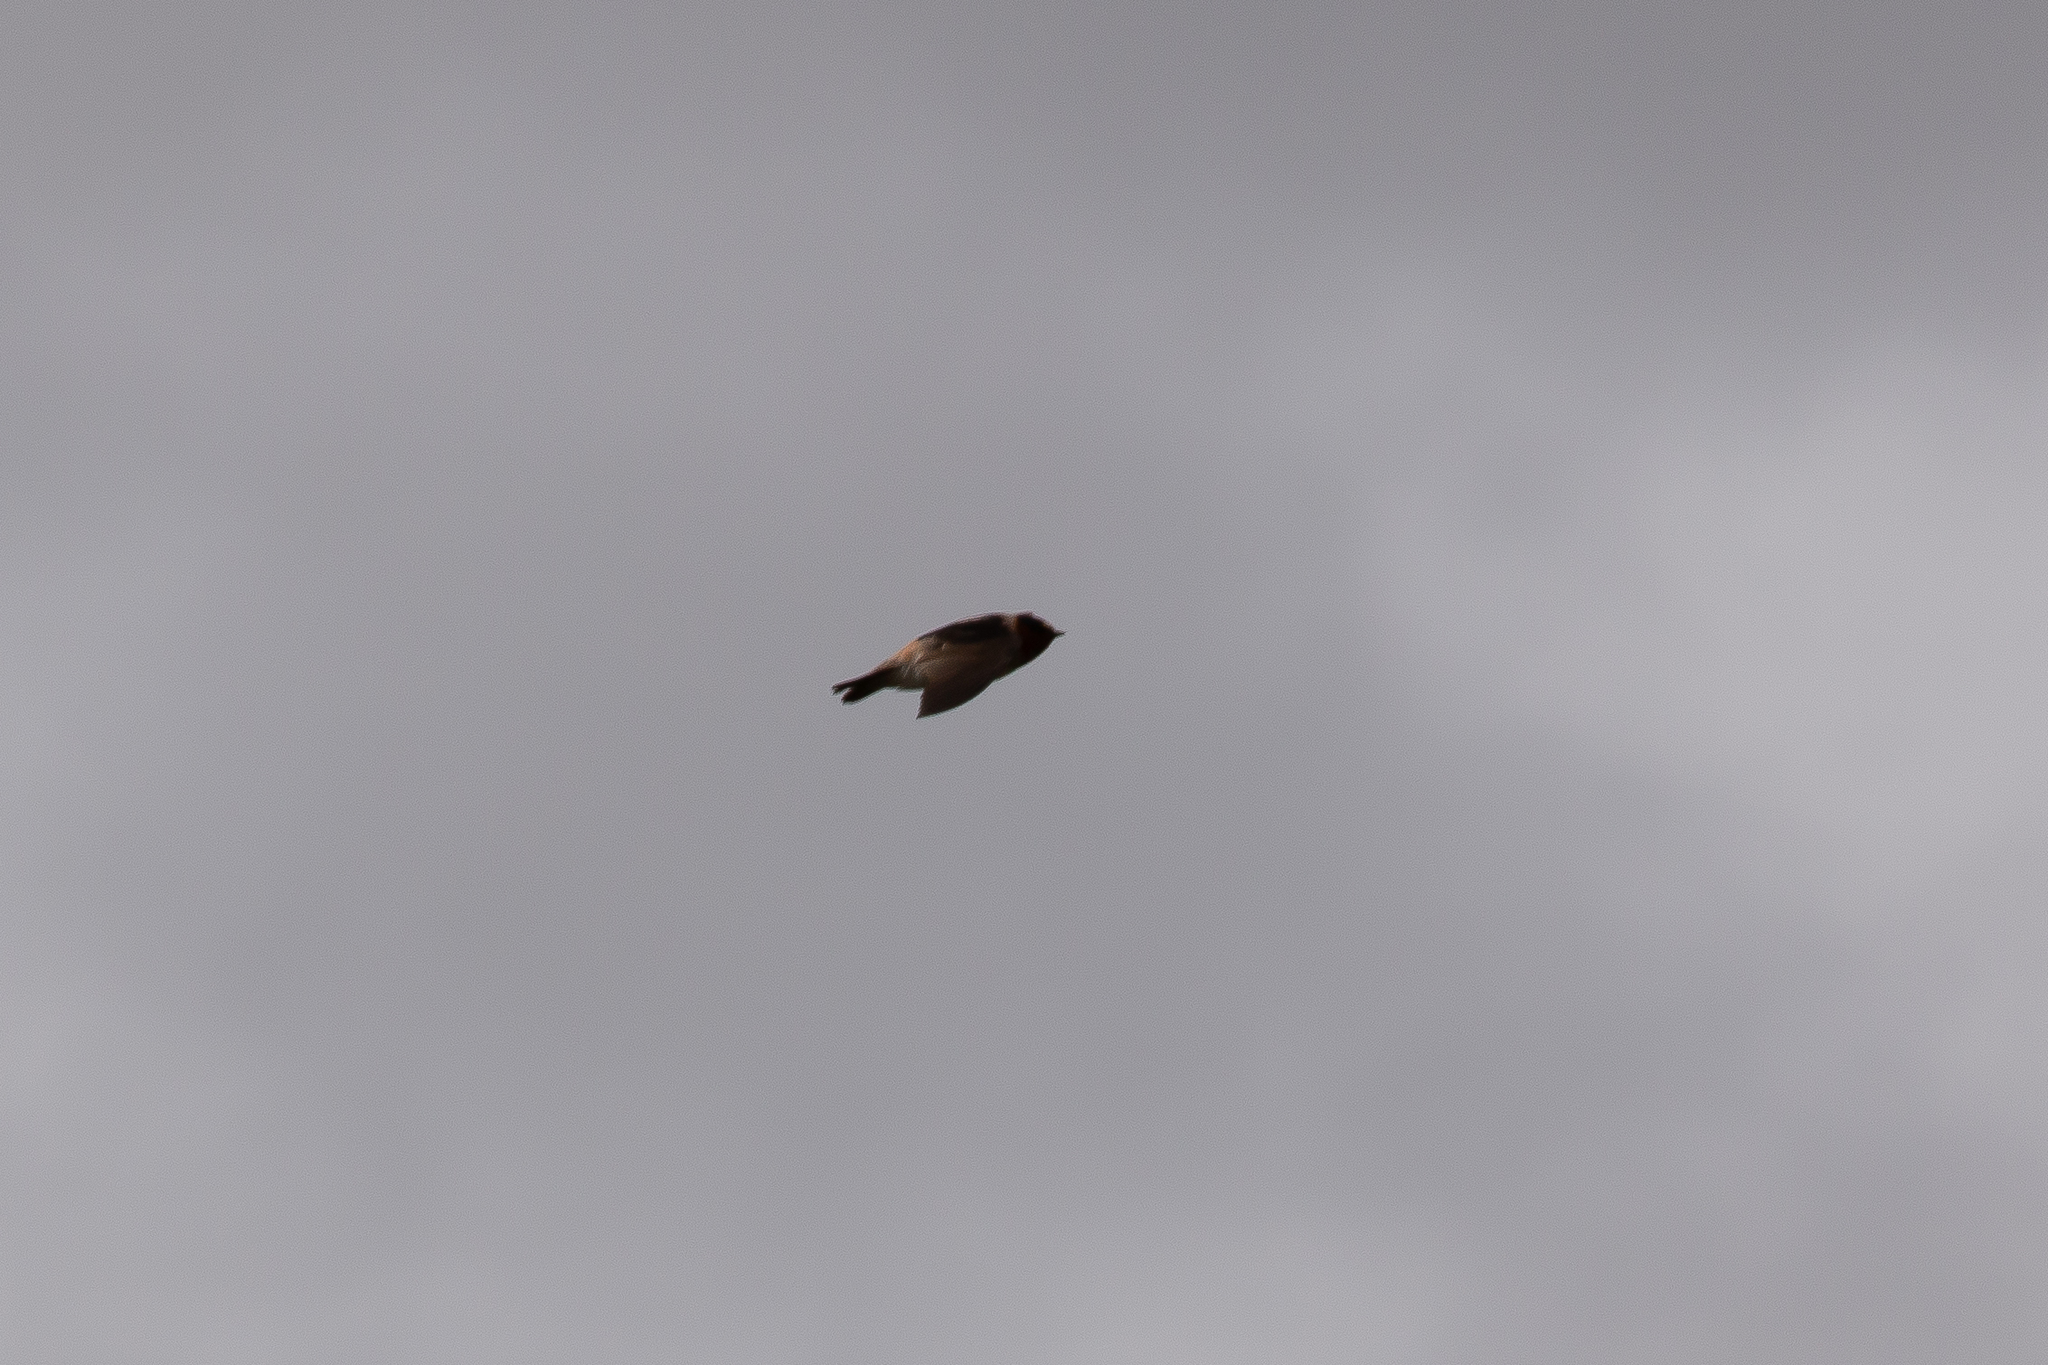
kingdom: Animalia
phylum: Chordata
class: Aves
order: Passeriformes
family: Hirundinidae
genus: Petrochelidon
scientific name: Petrochelidon pyrrhonota
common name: American cliff swallow
